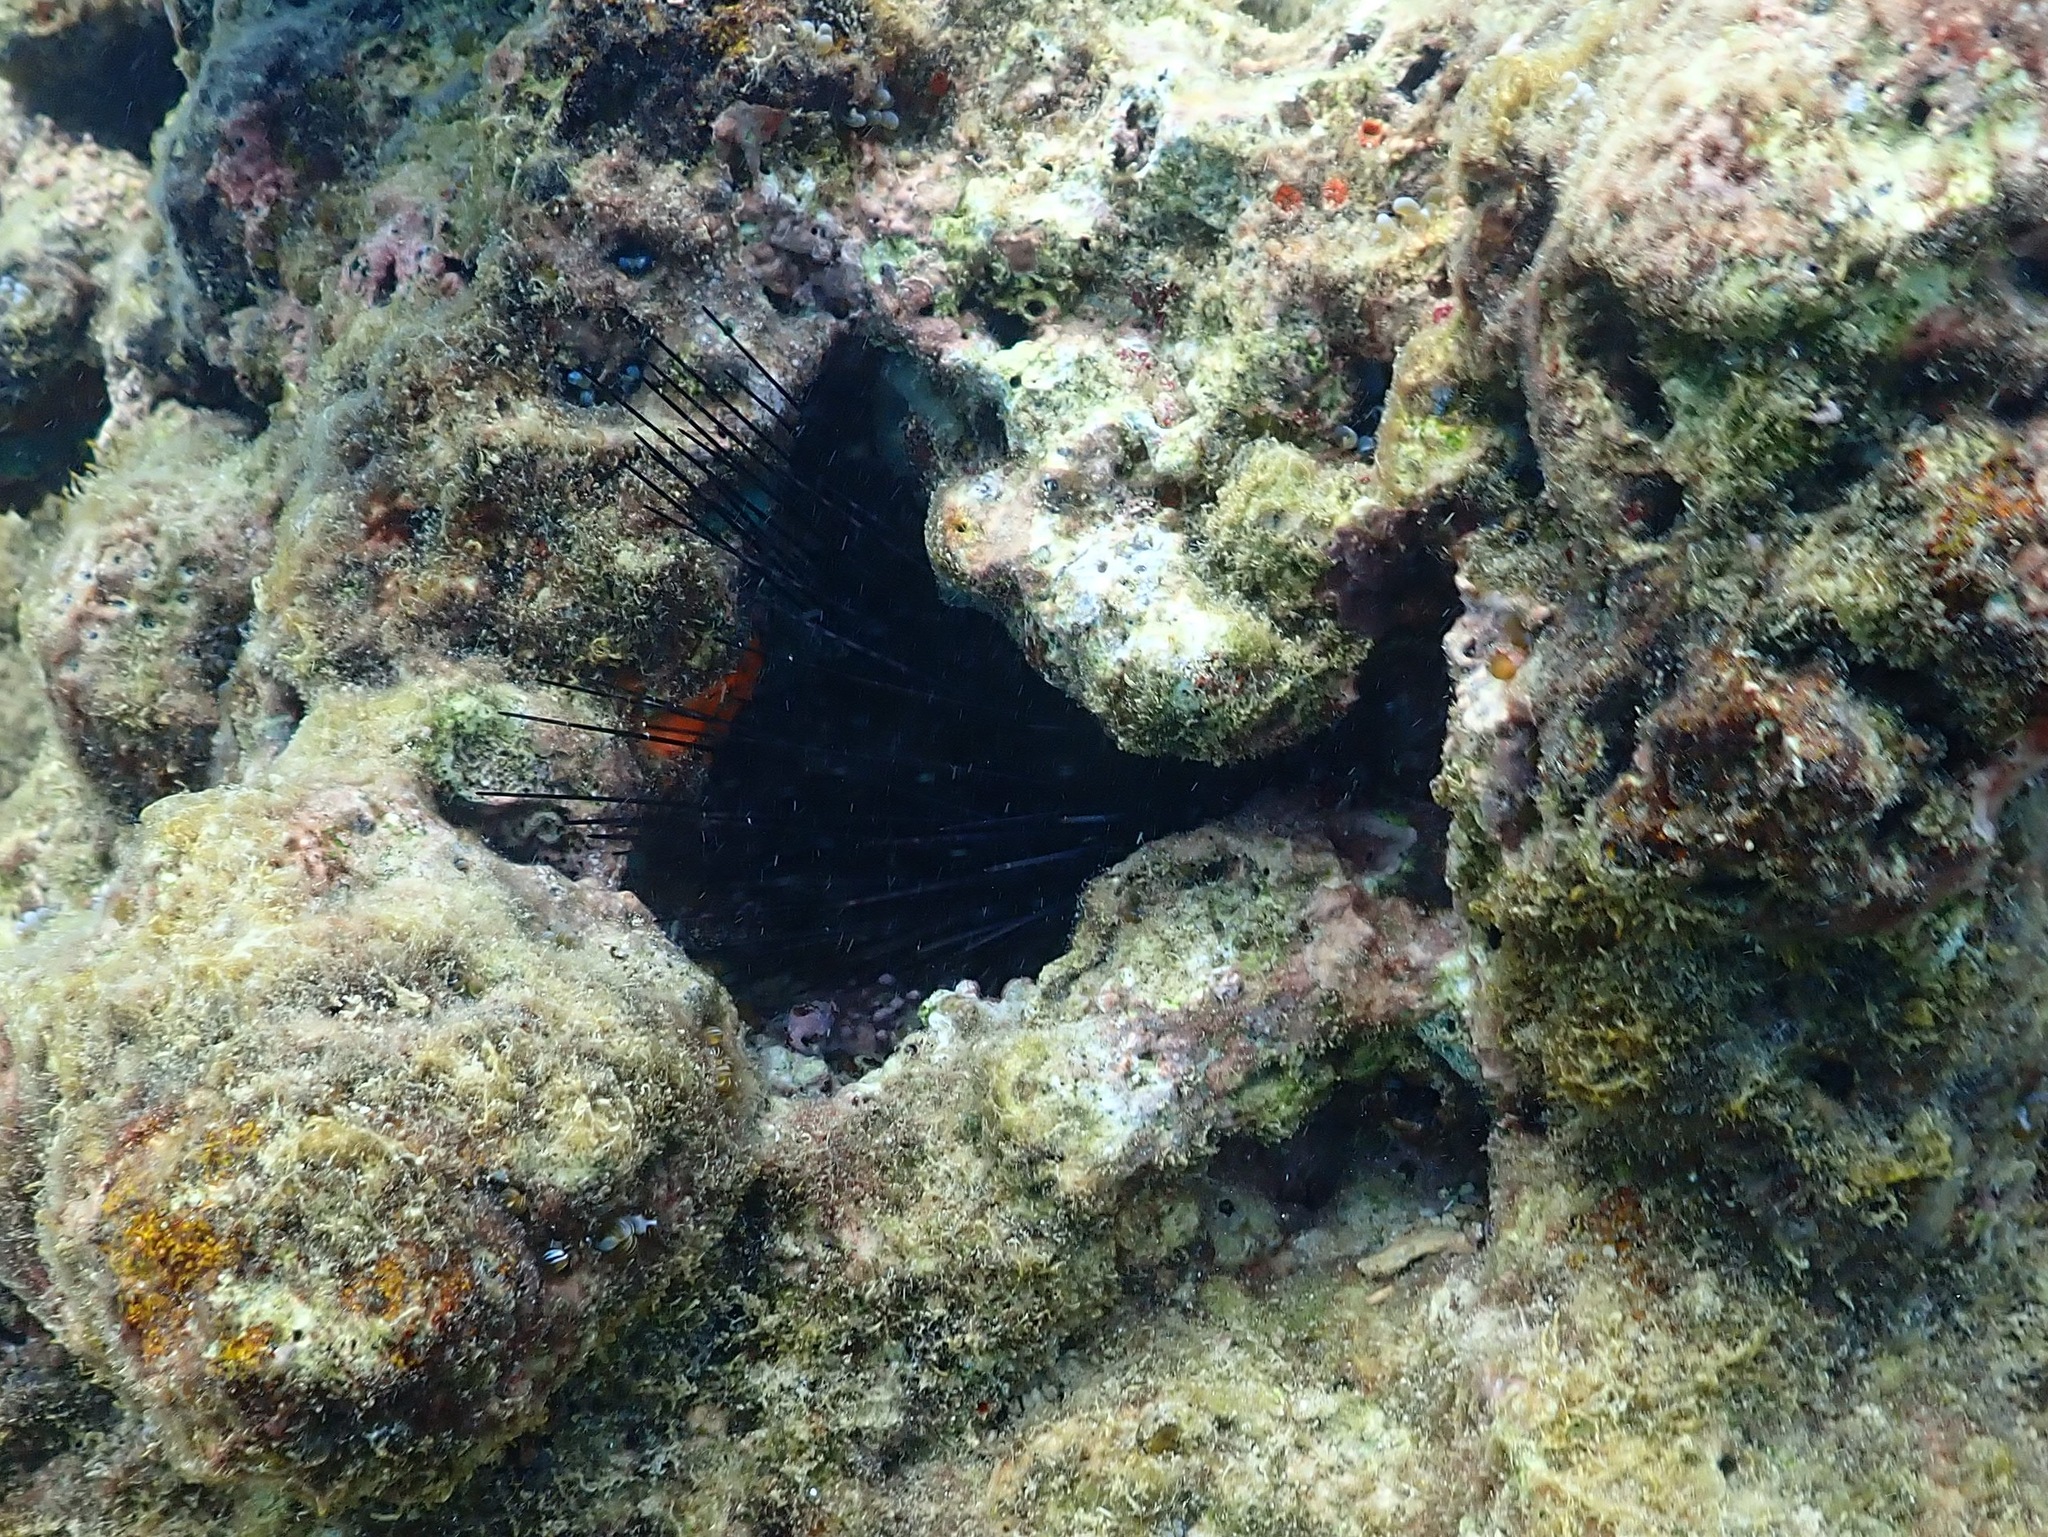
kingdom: Animalia
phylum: Echinodermata
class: Echinoidea
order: Diadematoida
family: Diadematidae
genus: Diadema
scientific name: Diadema antillarum
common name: Spiny urchin
